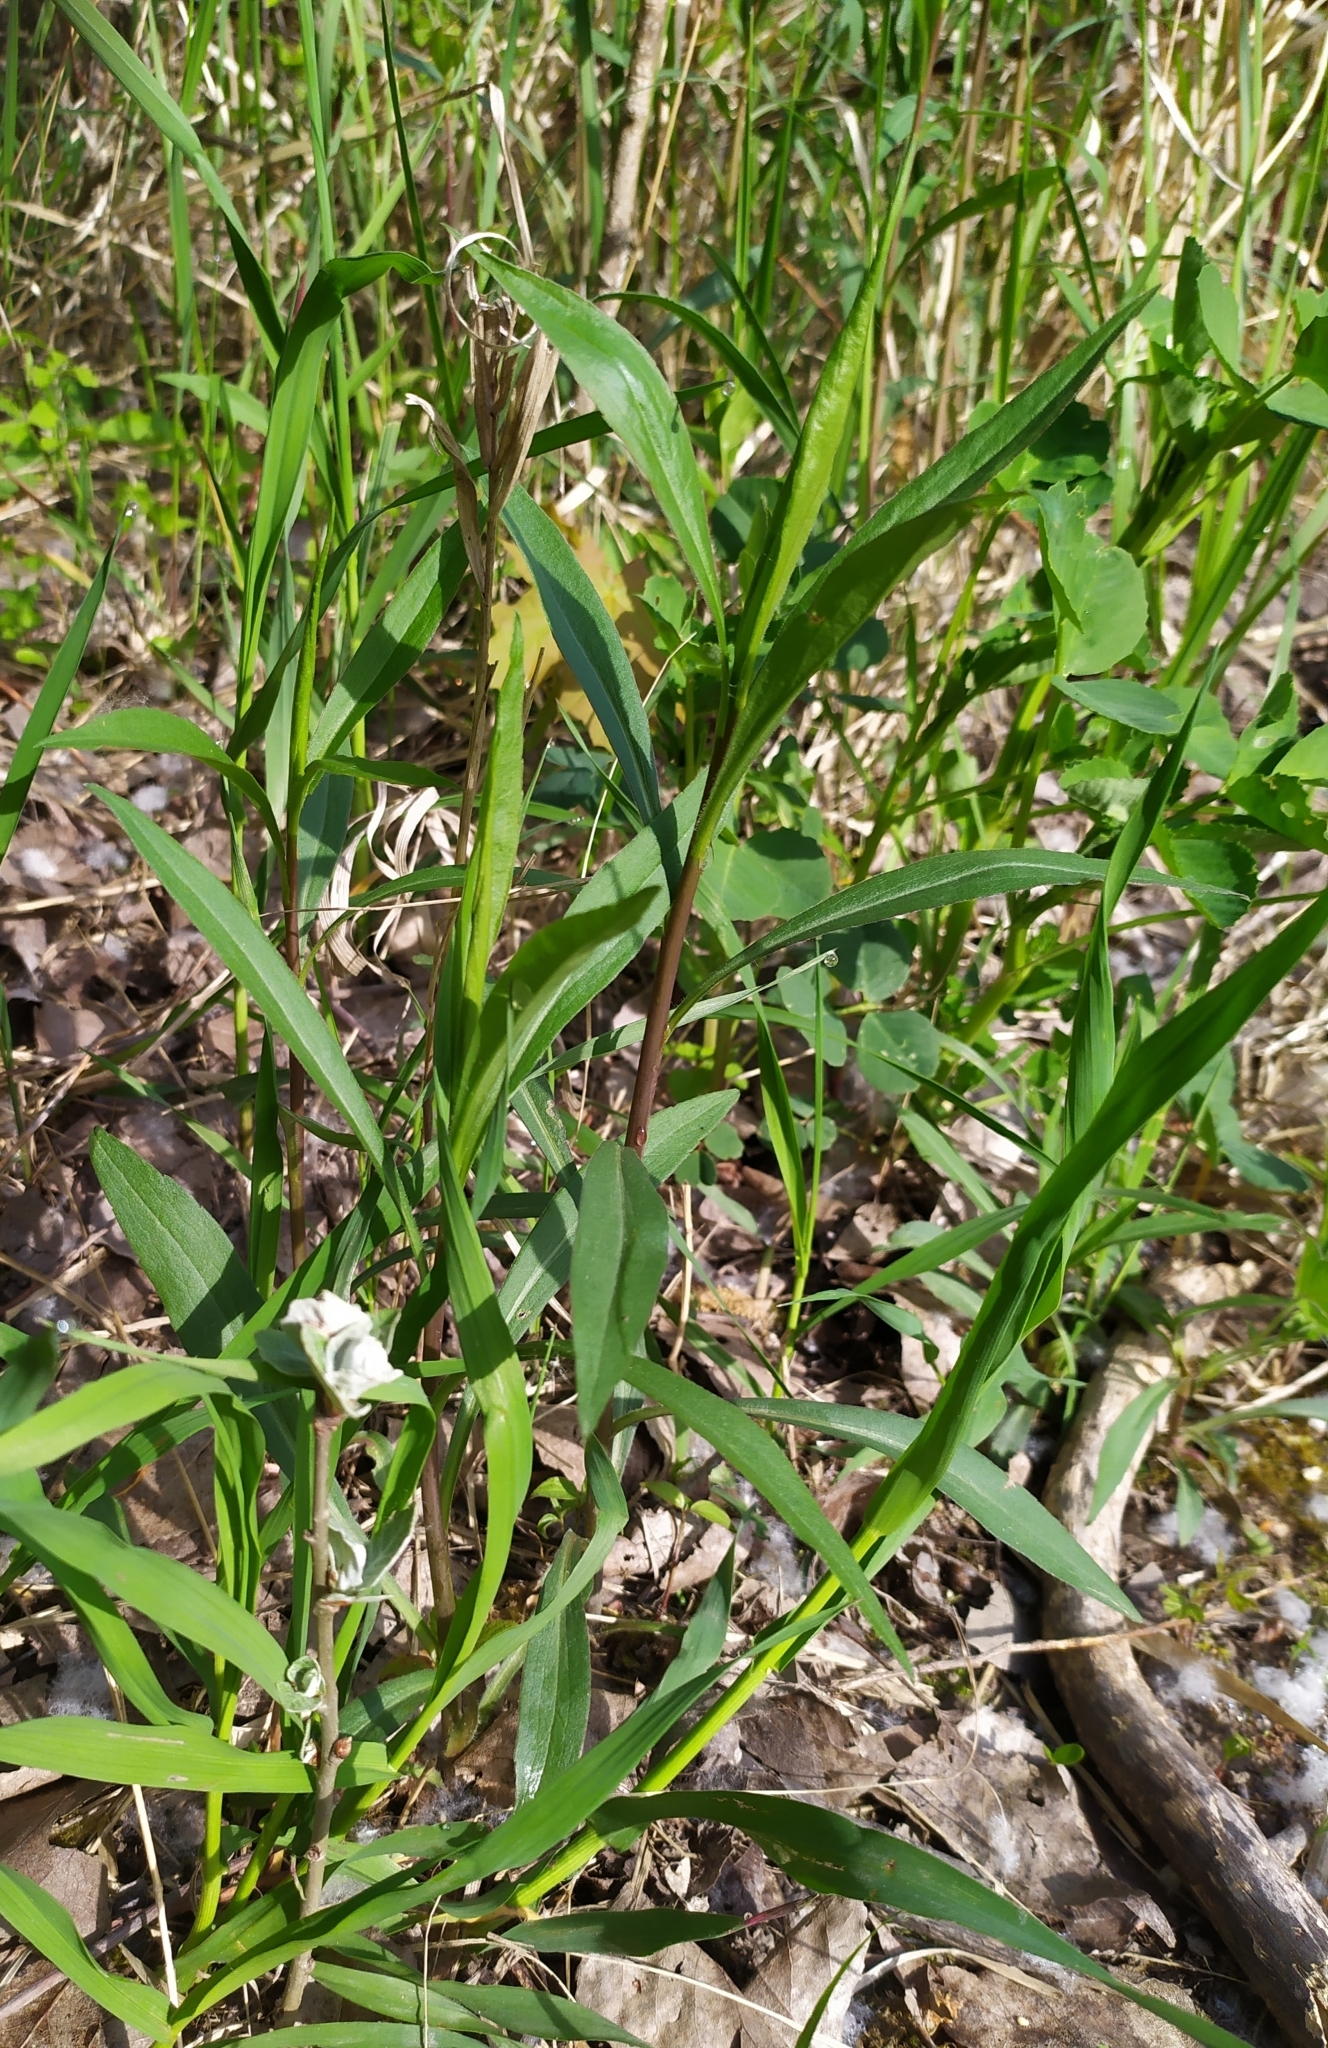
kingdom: Plantae
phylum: Tracheophyta
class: Magnoliopsida
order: Asterales
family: Asteraceae
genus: Solidago
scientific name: Solidago gigantea
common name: Giant goldenrod
